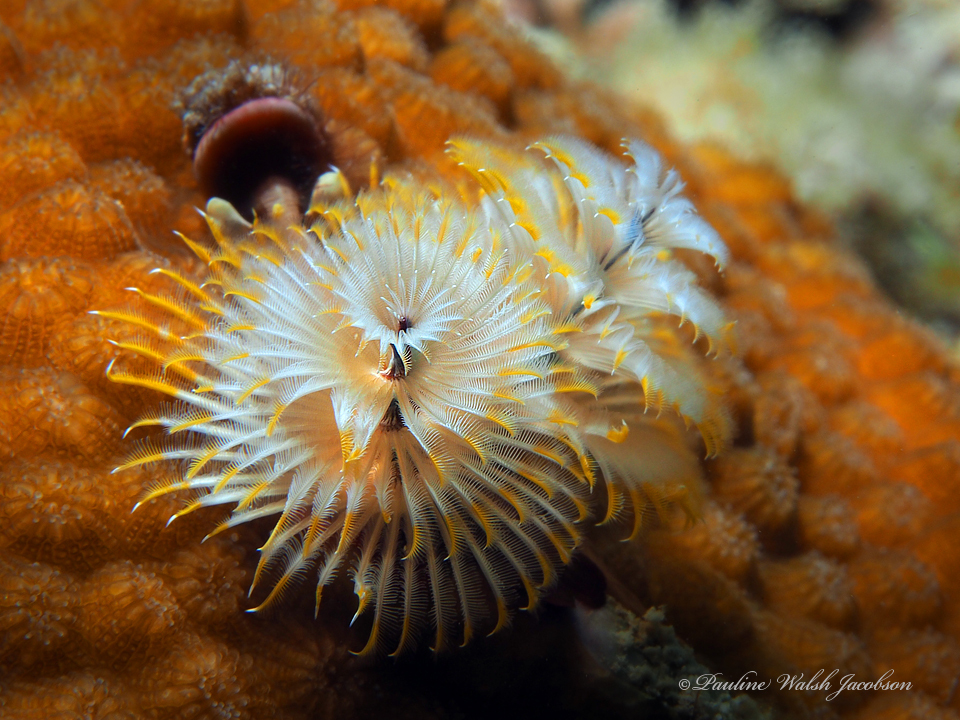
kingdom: Animalia
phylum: Annelida
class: Polychaeta
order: Sabellida
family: Serpulidae
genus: Spirobranchus
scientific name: Spirobranchus giganteus
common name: Christmas tree worm
